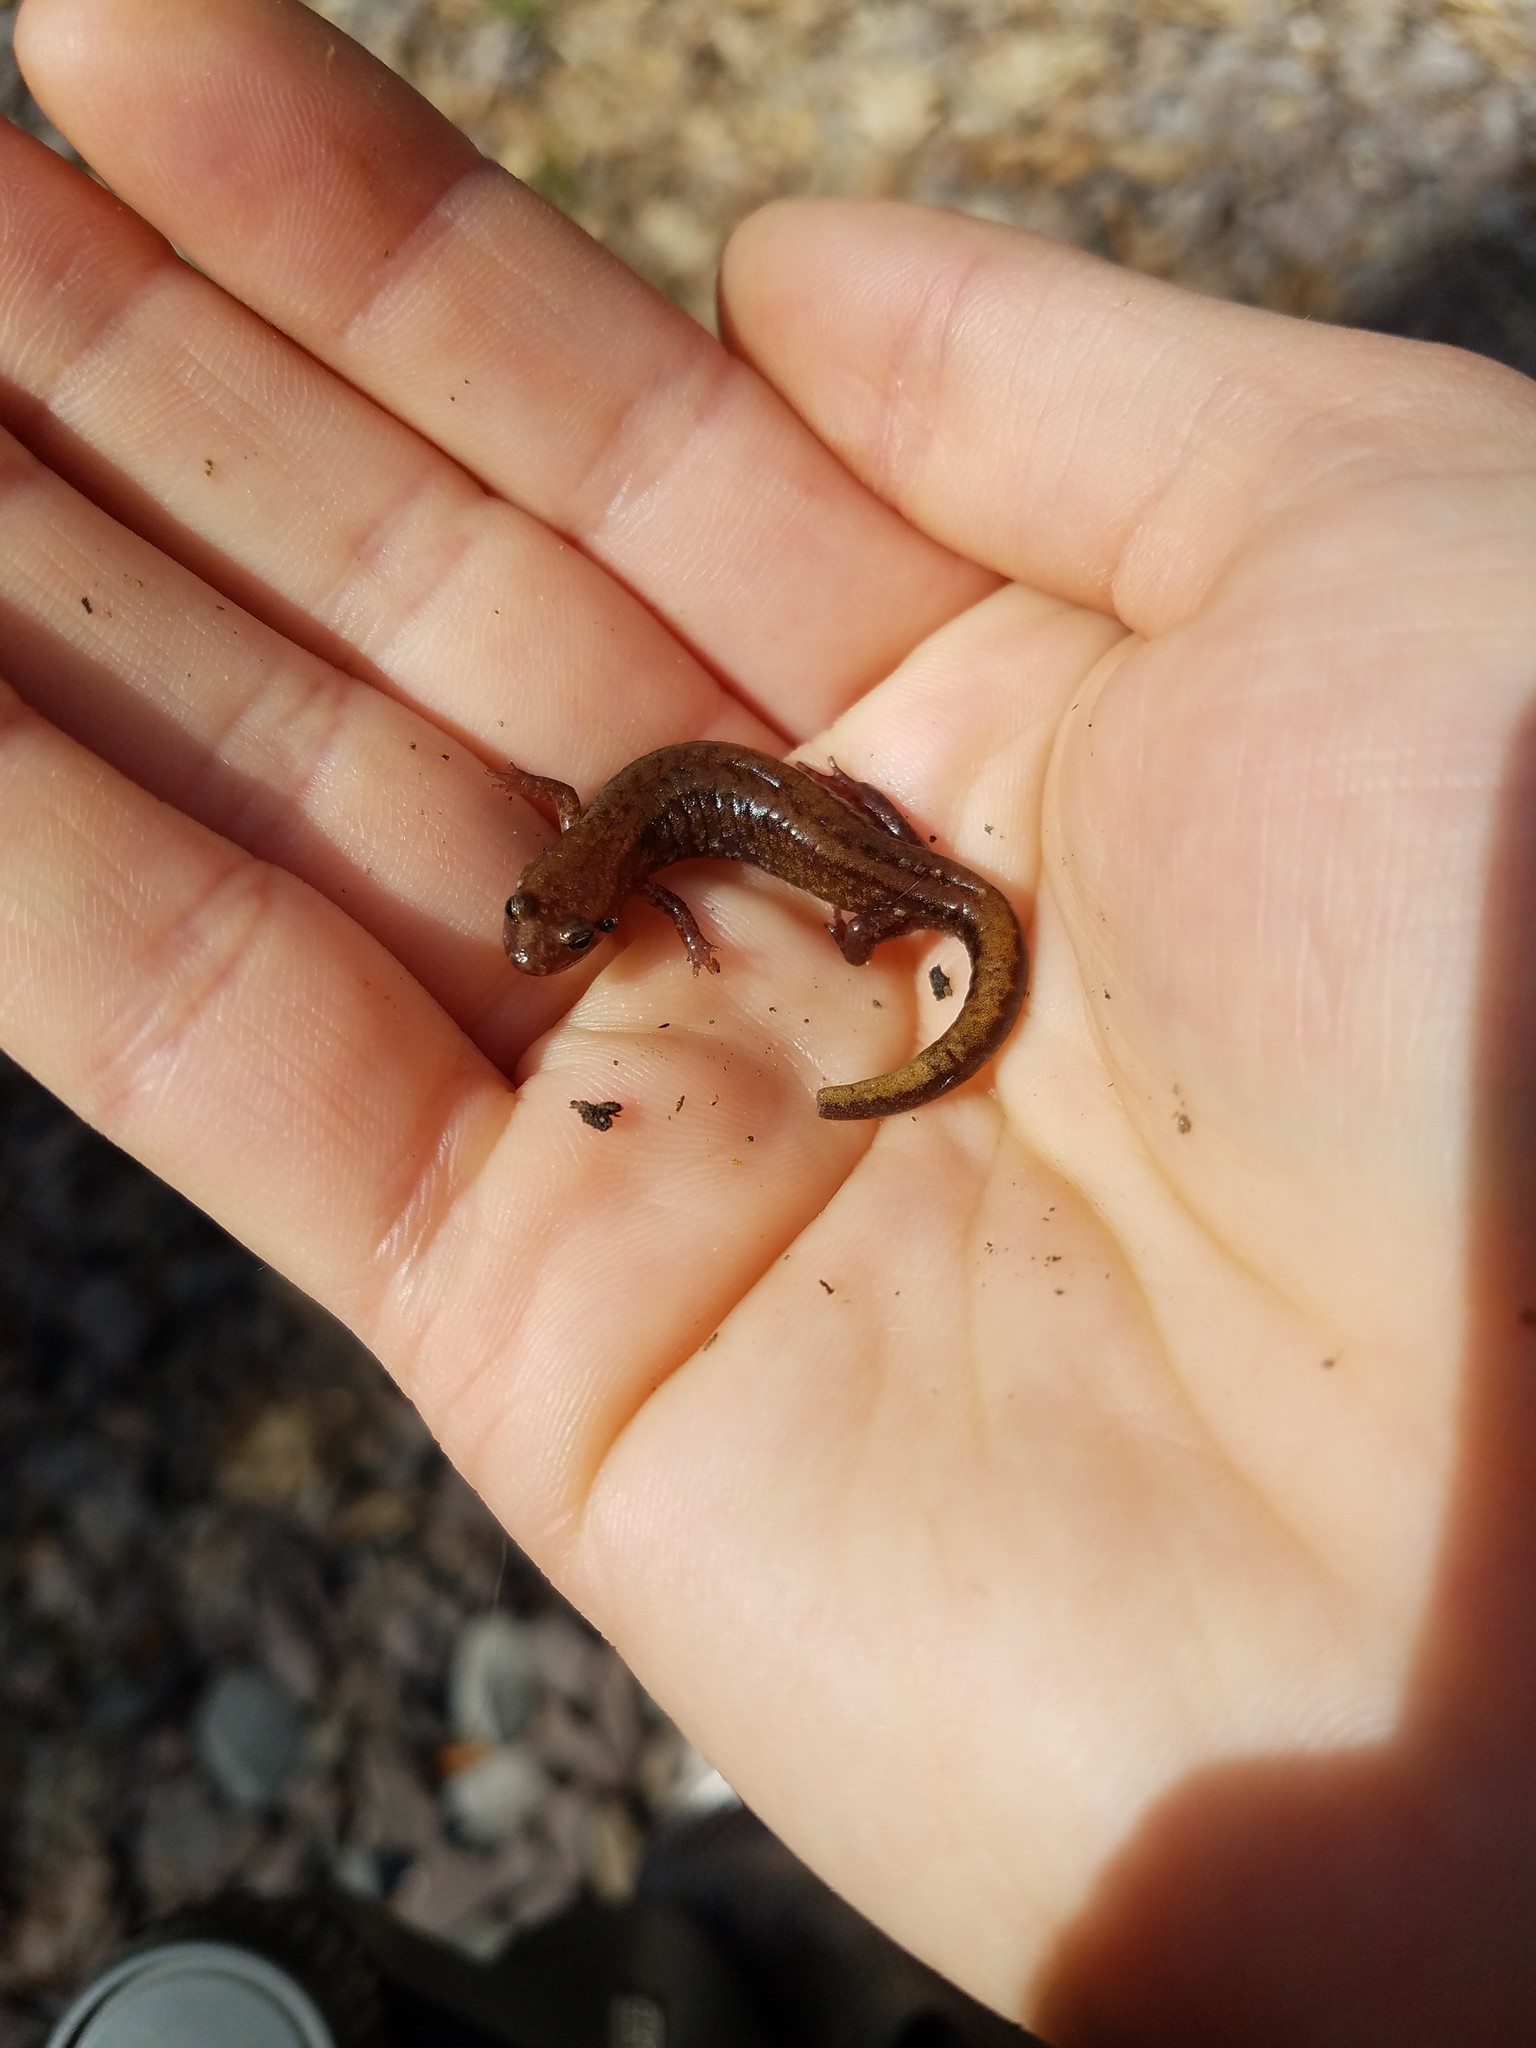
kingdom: Animalia
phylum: Chordata
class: Amphibia
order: Caudata
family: Plethodontidae
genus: Desmognathus
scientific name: Desmognathus ochrophaeus
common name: Allegheny mountain dusky salamander
